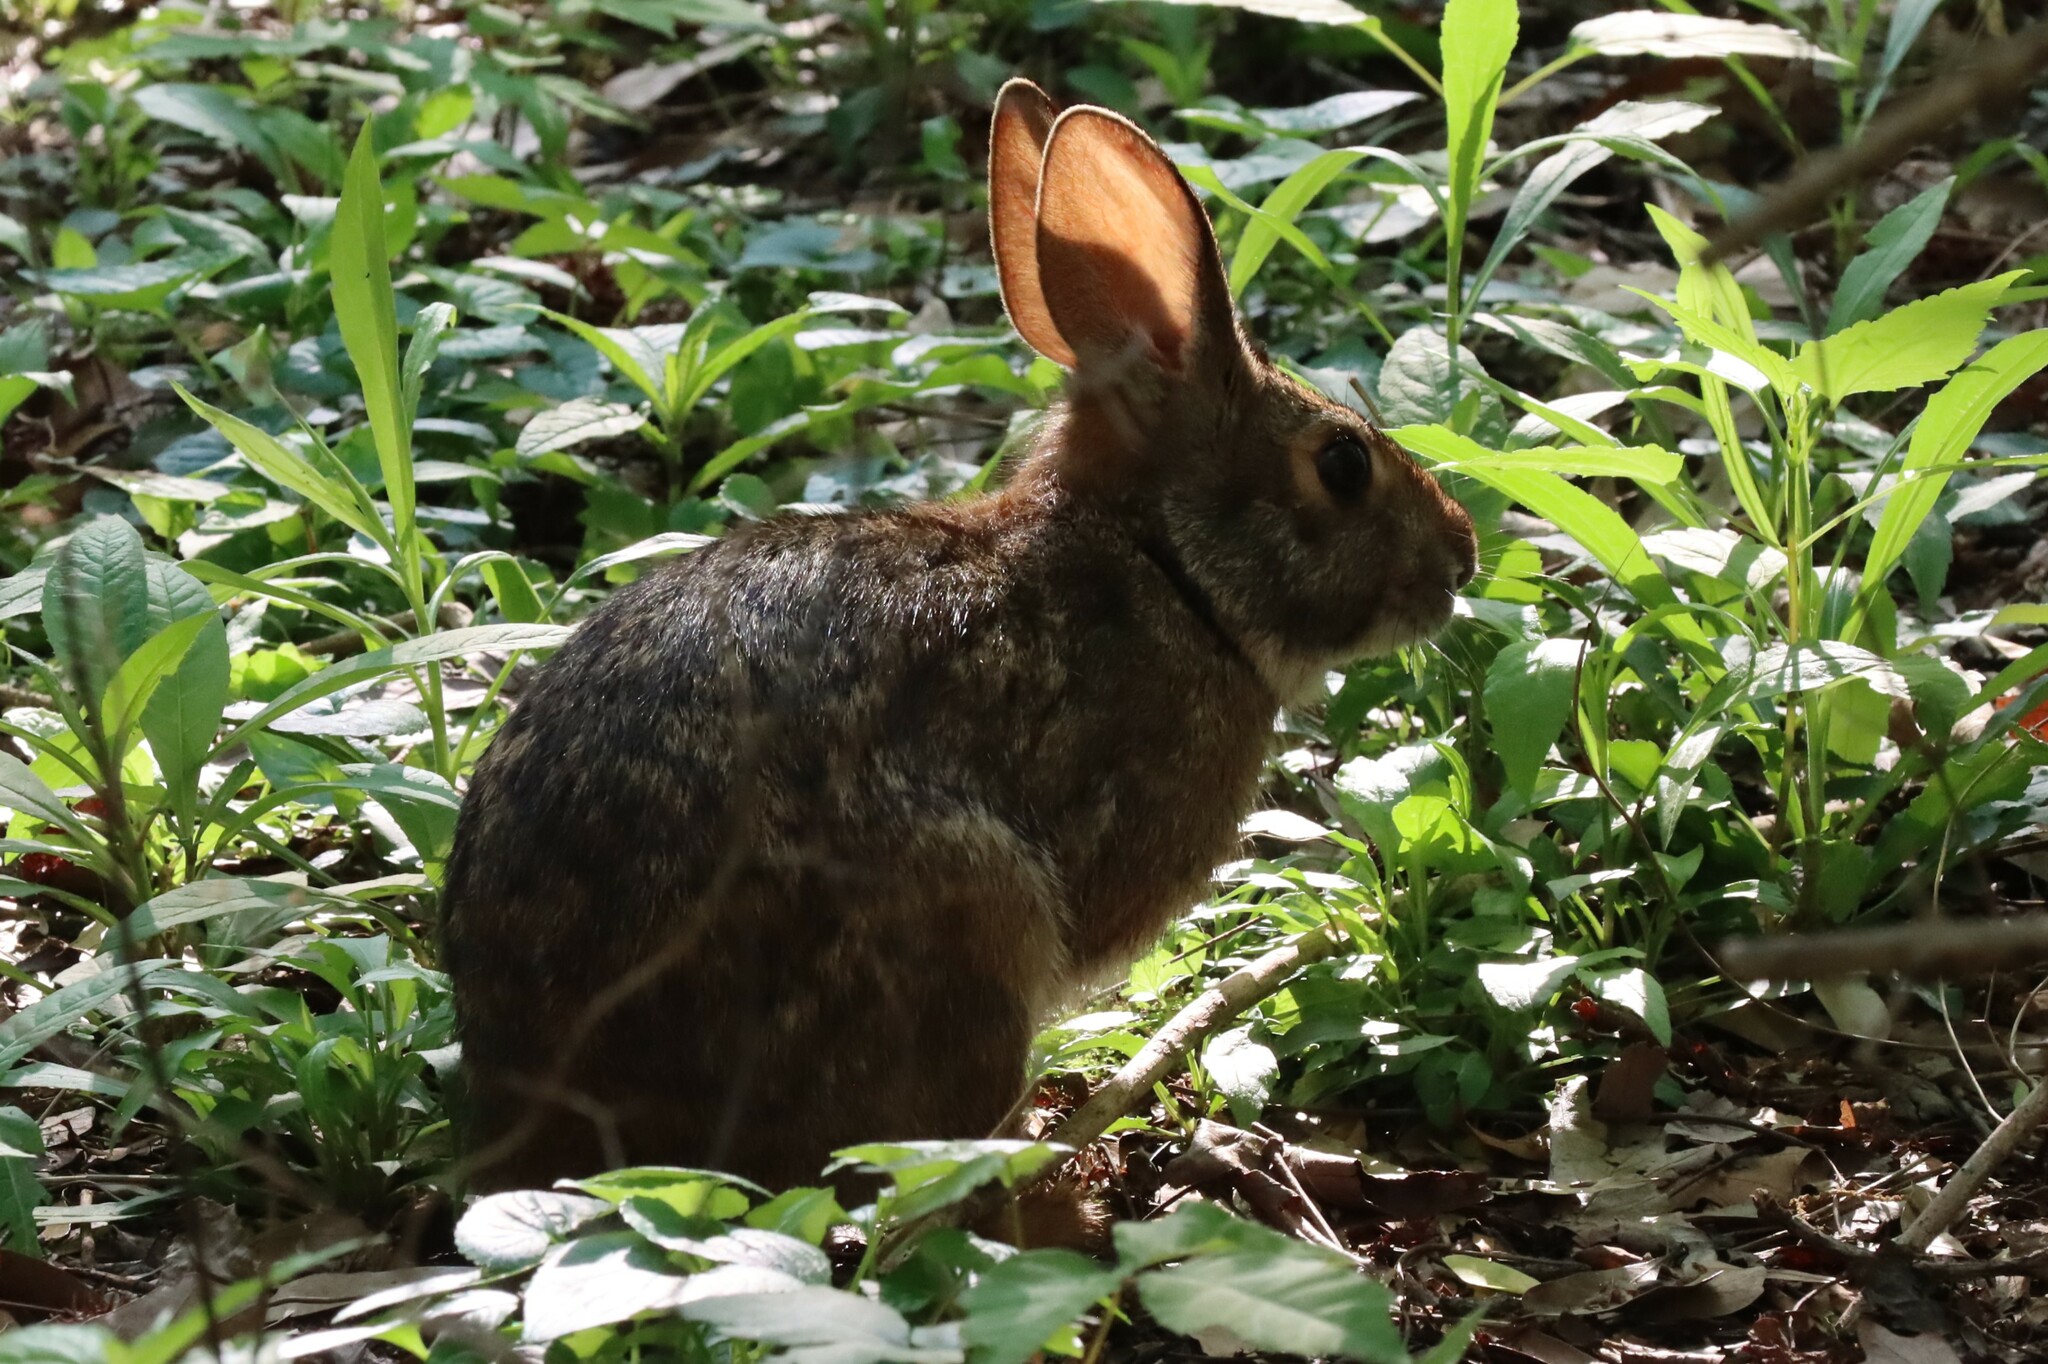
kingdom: Animalia
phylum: Chordata
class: Mammalia
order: Lagomorpha
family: Leporidae
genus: Sylvilagus
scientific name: Sylvilagus aquaticus
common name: Swamp rabbit
